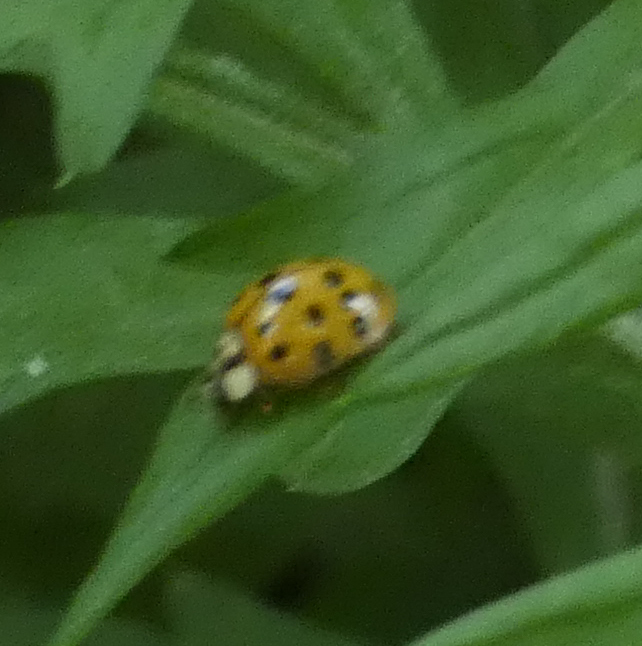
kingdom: Animalia
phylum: Arthropoda
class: Insecta
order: Coleoptera
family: Coccinellidae
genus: Harmonia
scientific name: Harmonia axyridis
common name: Harlequin ladybird
